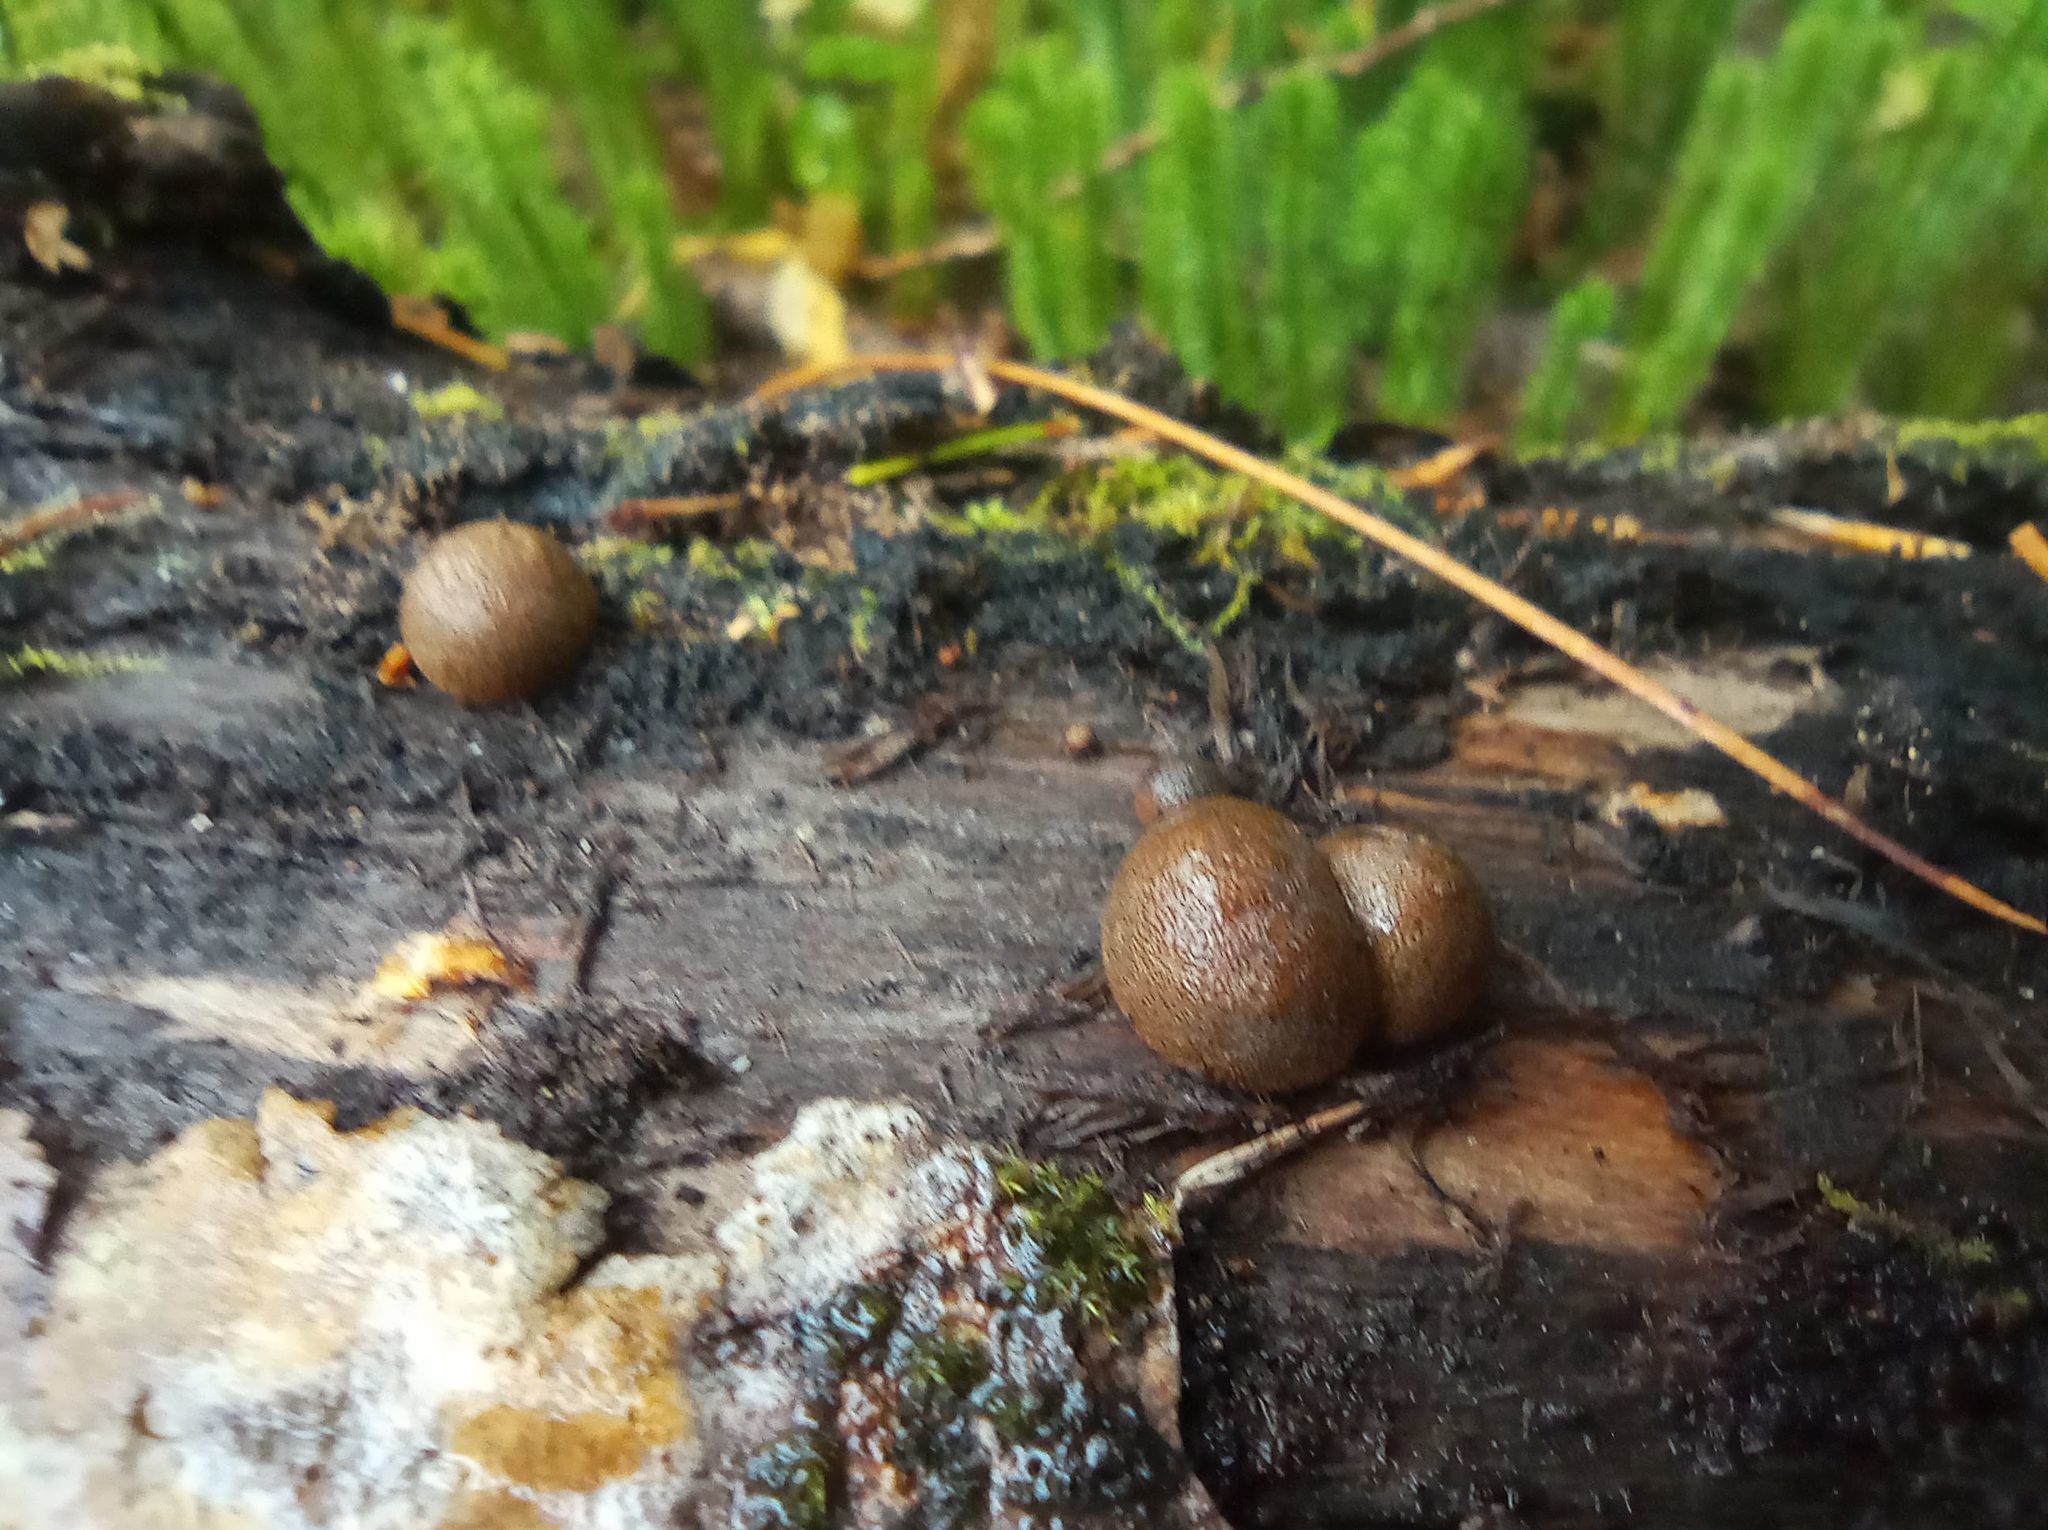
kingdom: Protozoa
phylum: Mycetozoa
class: Myxomycetes
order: Cribrariales
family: Tubiferaceae
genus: Lycogala
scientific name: Lycogala epidendrum
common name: Wolf's milk
